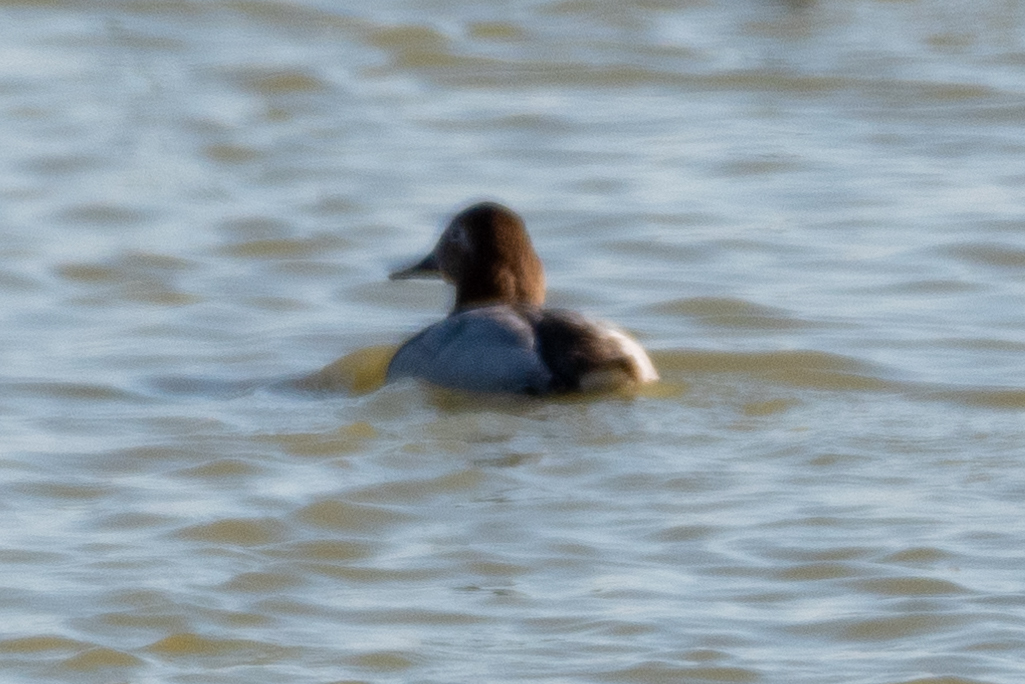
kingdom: Animalia
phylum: Chordata
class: Aves
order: Anseriformes
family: Anatidae
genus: Aythya
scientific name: Aythya valisineria
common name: Canvasback
